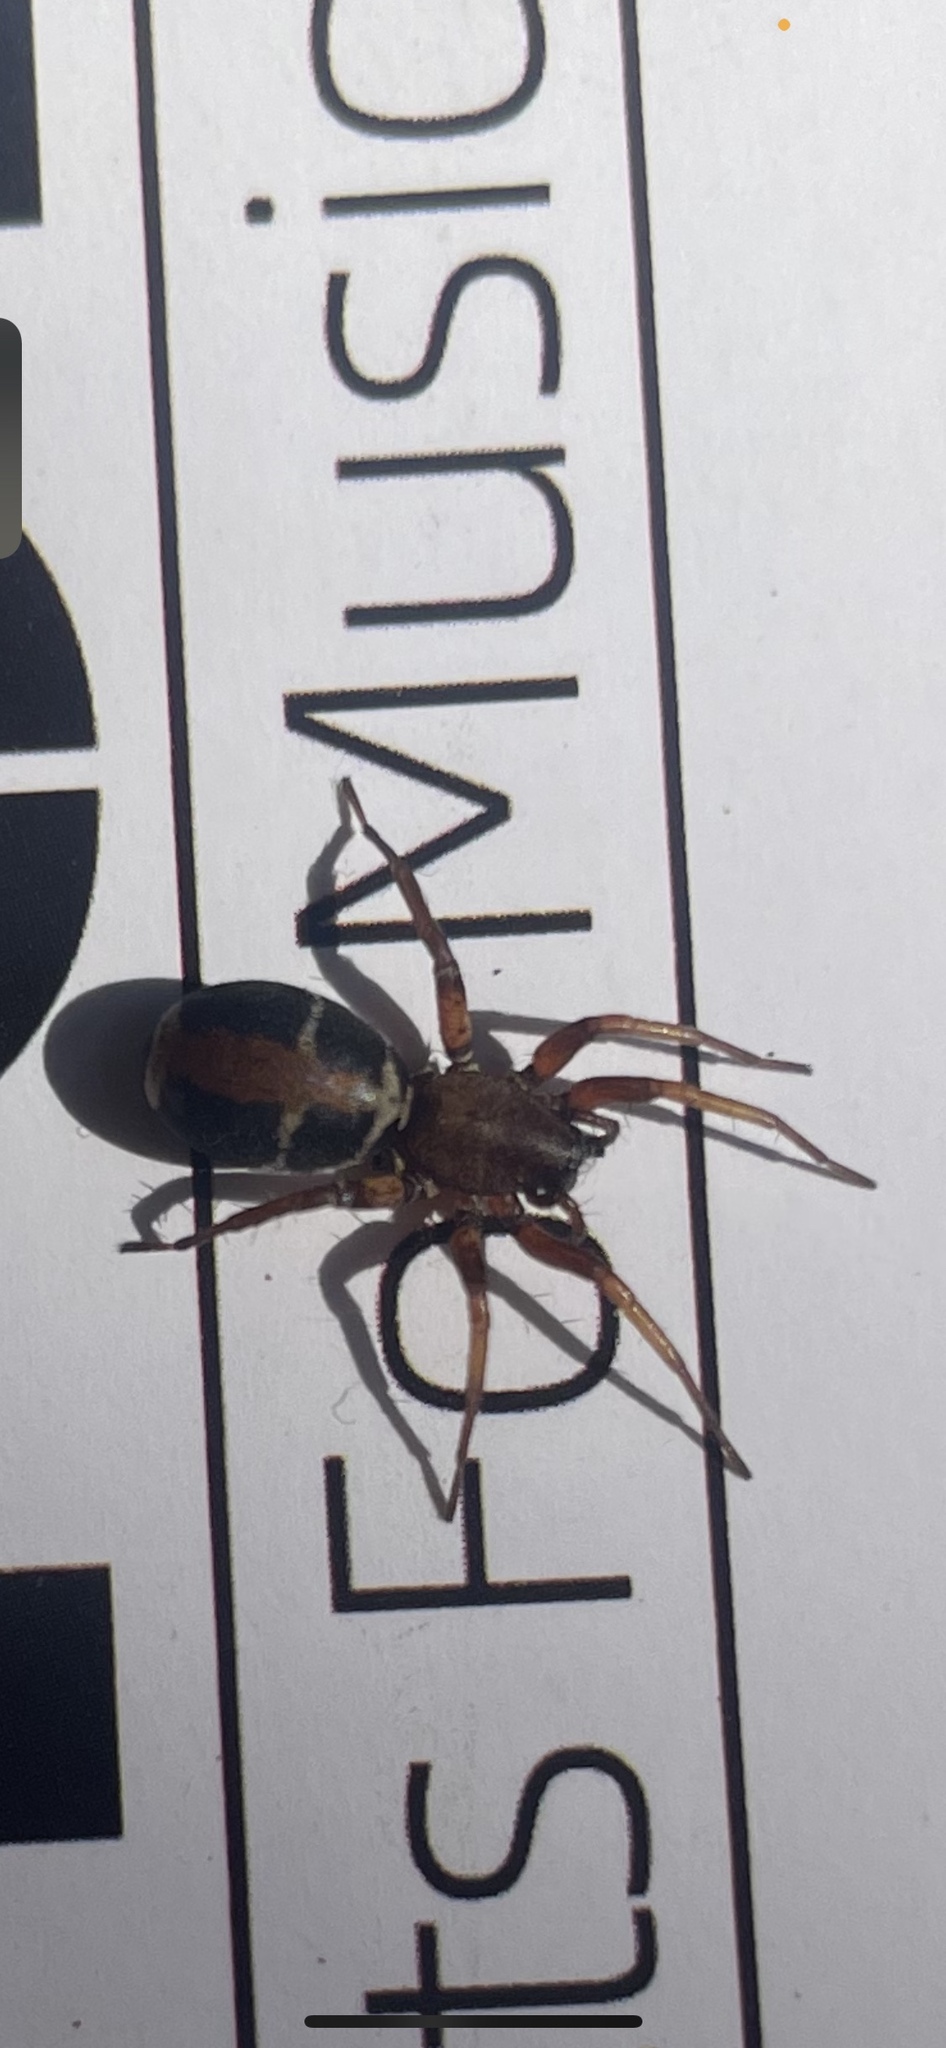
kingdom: Animalia
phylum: Arthropoda
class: Arachnida
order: Araneae
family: Corinnidae
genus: Castianeira
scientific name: Castianeira thalia
